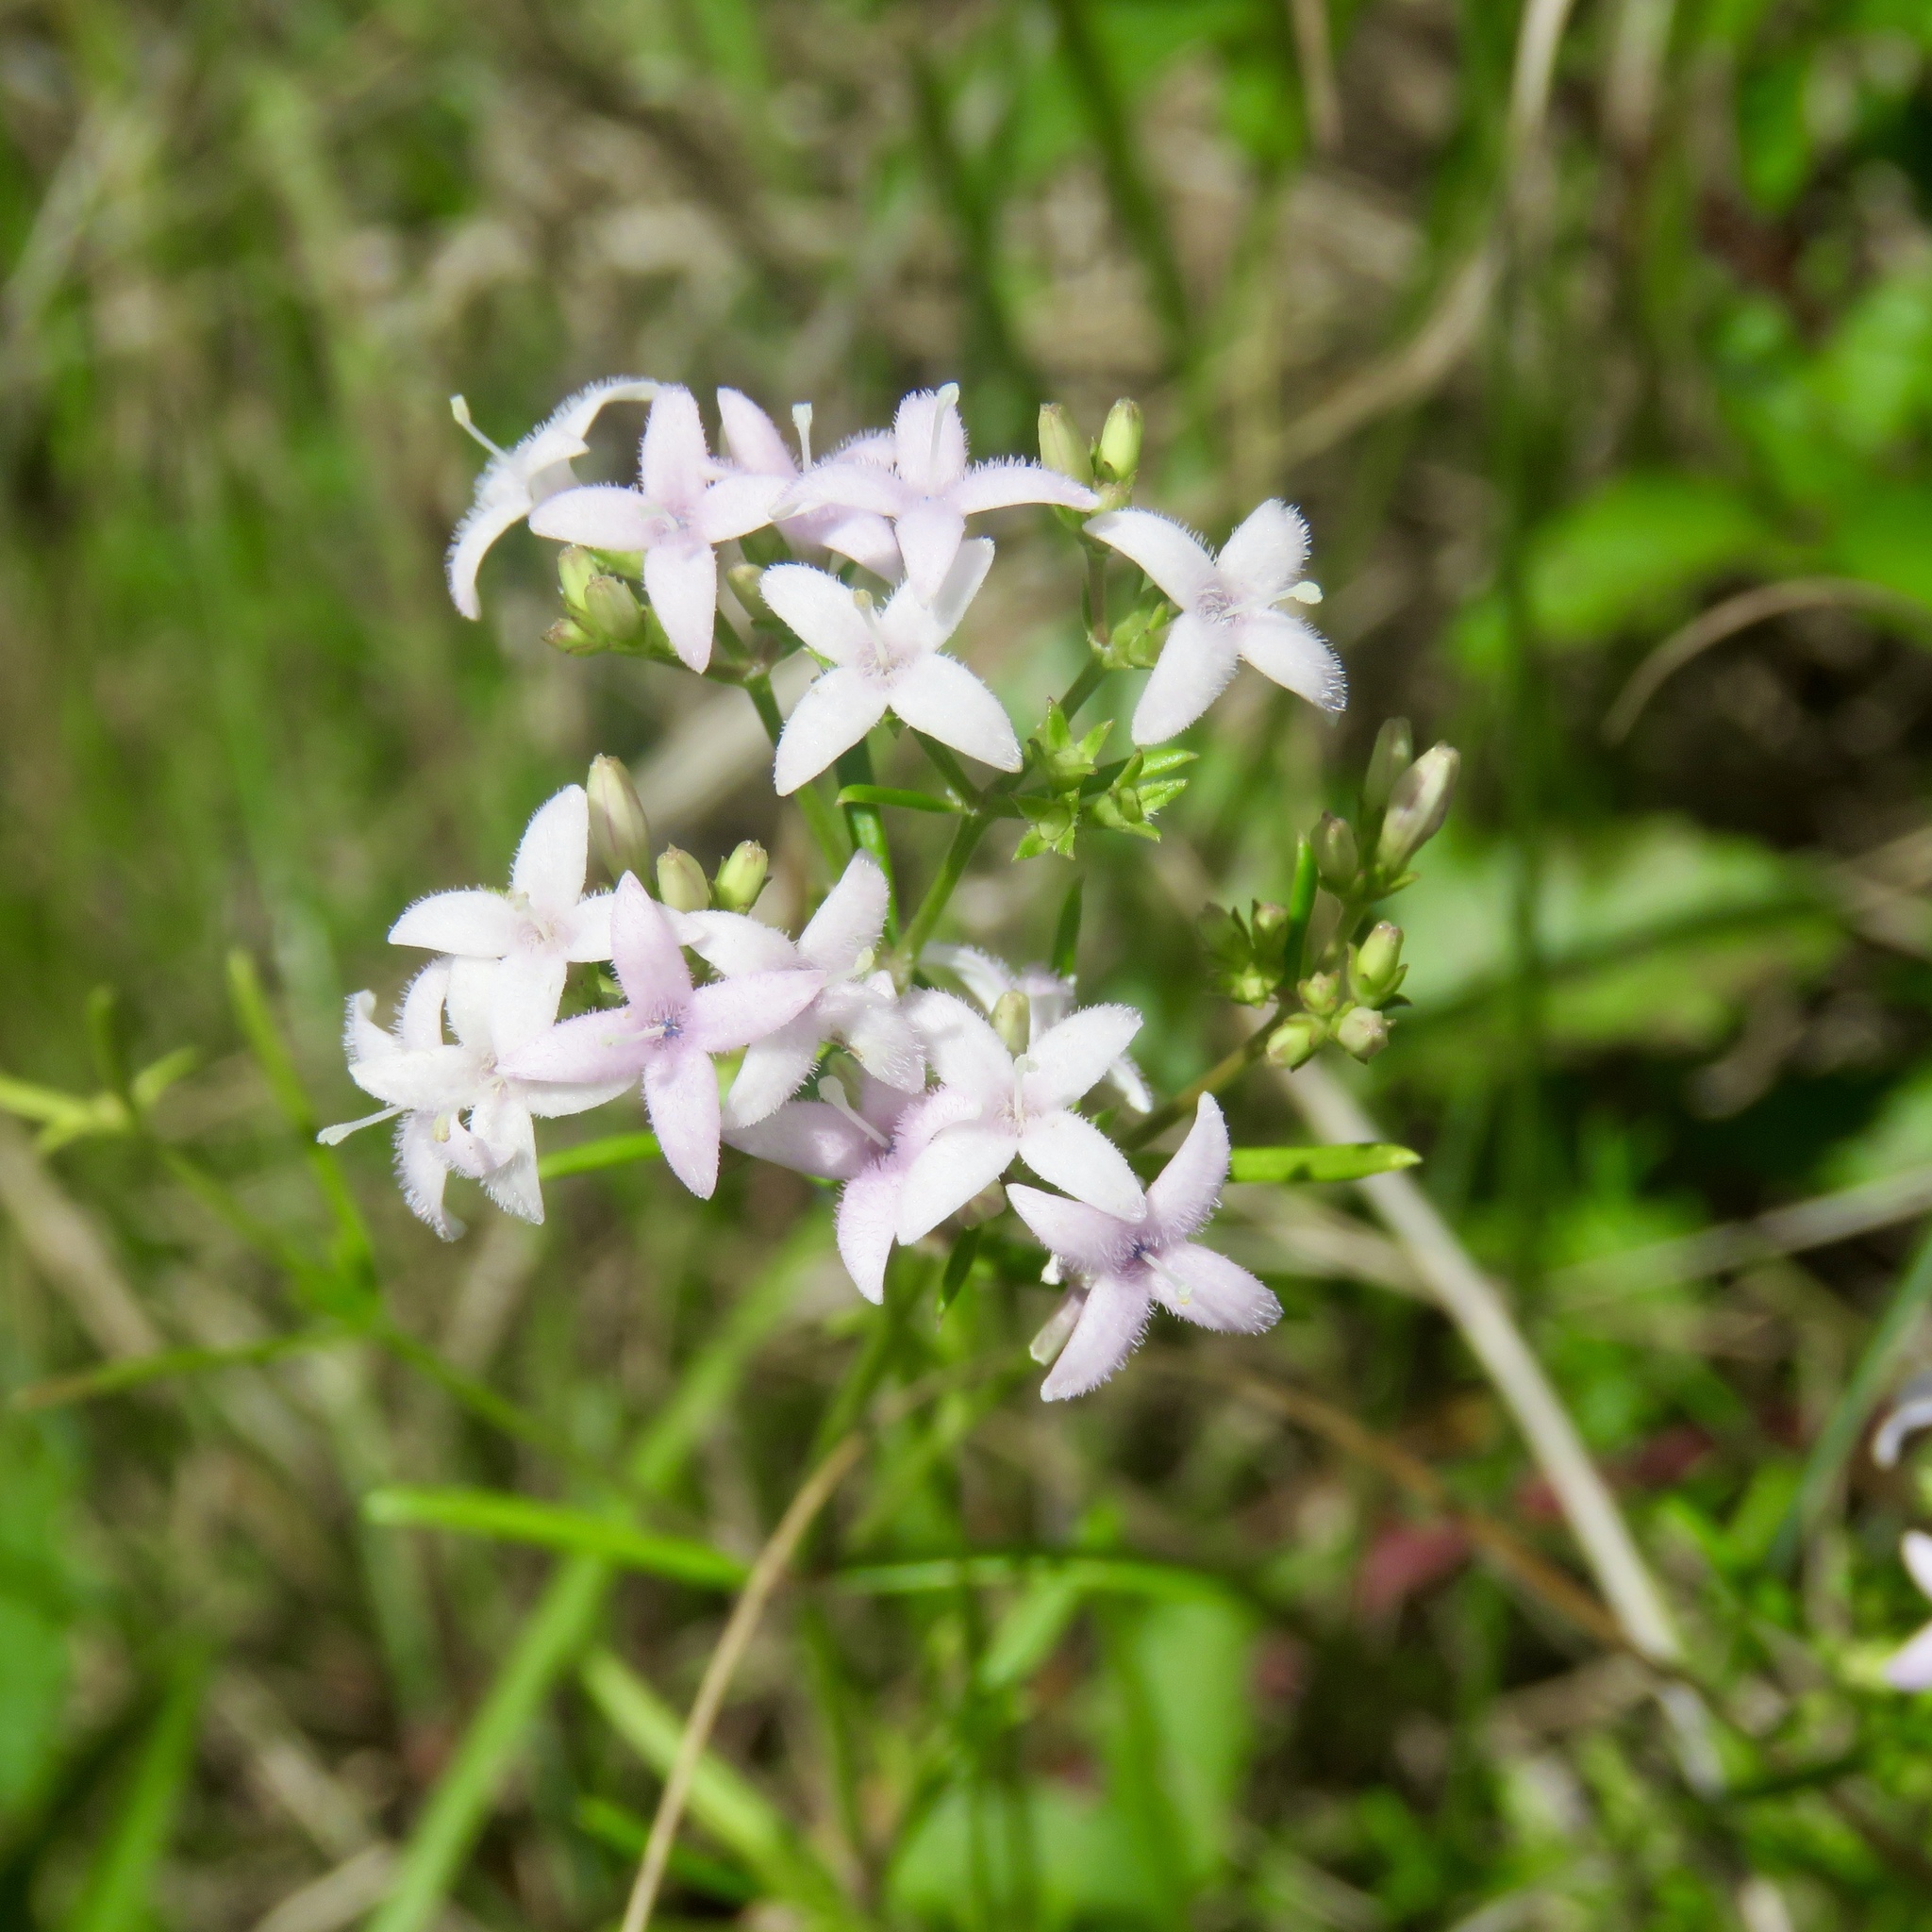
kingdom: Plantae
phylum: Tracheophyta
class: Magnoliopsida
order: Gentianales
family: Rubiaceae
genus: Stenaria
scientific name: Stenaria nigricans
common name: Diamondflowers
